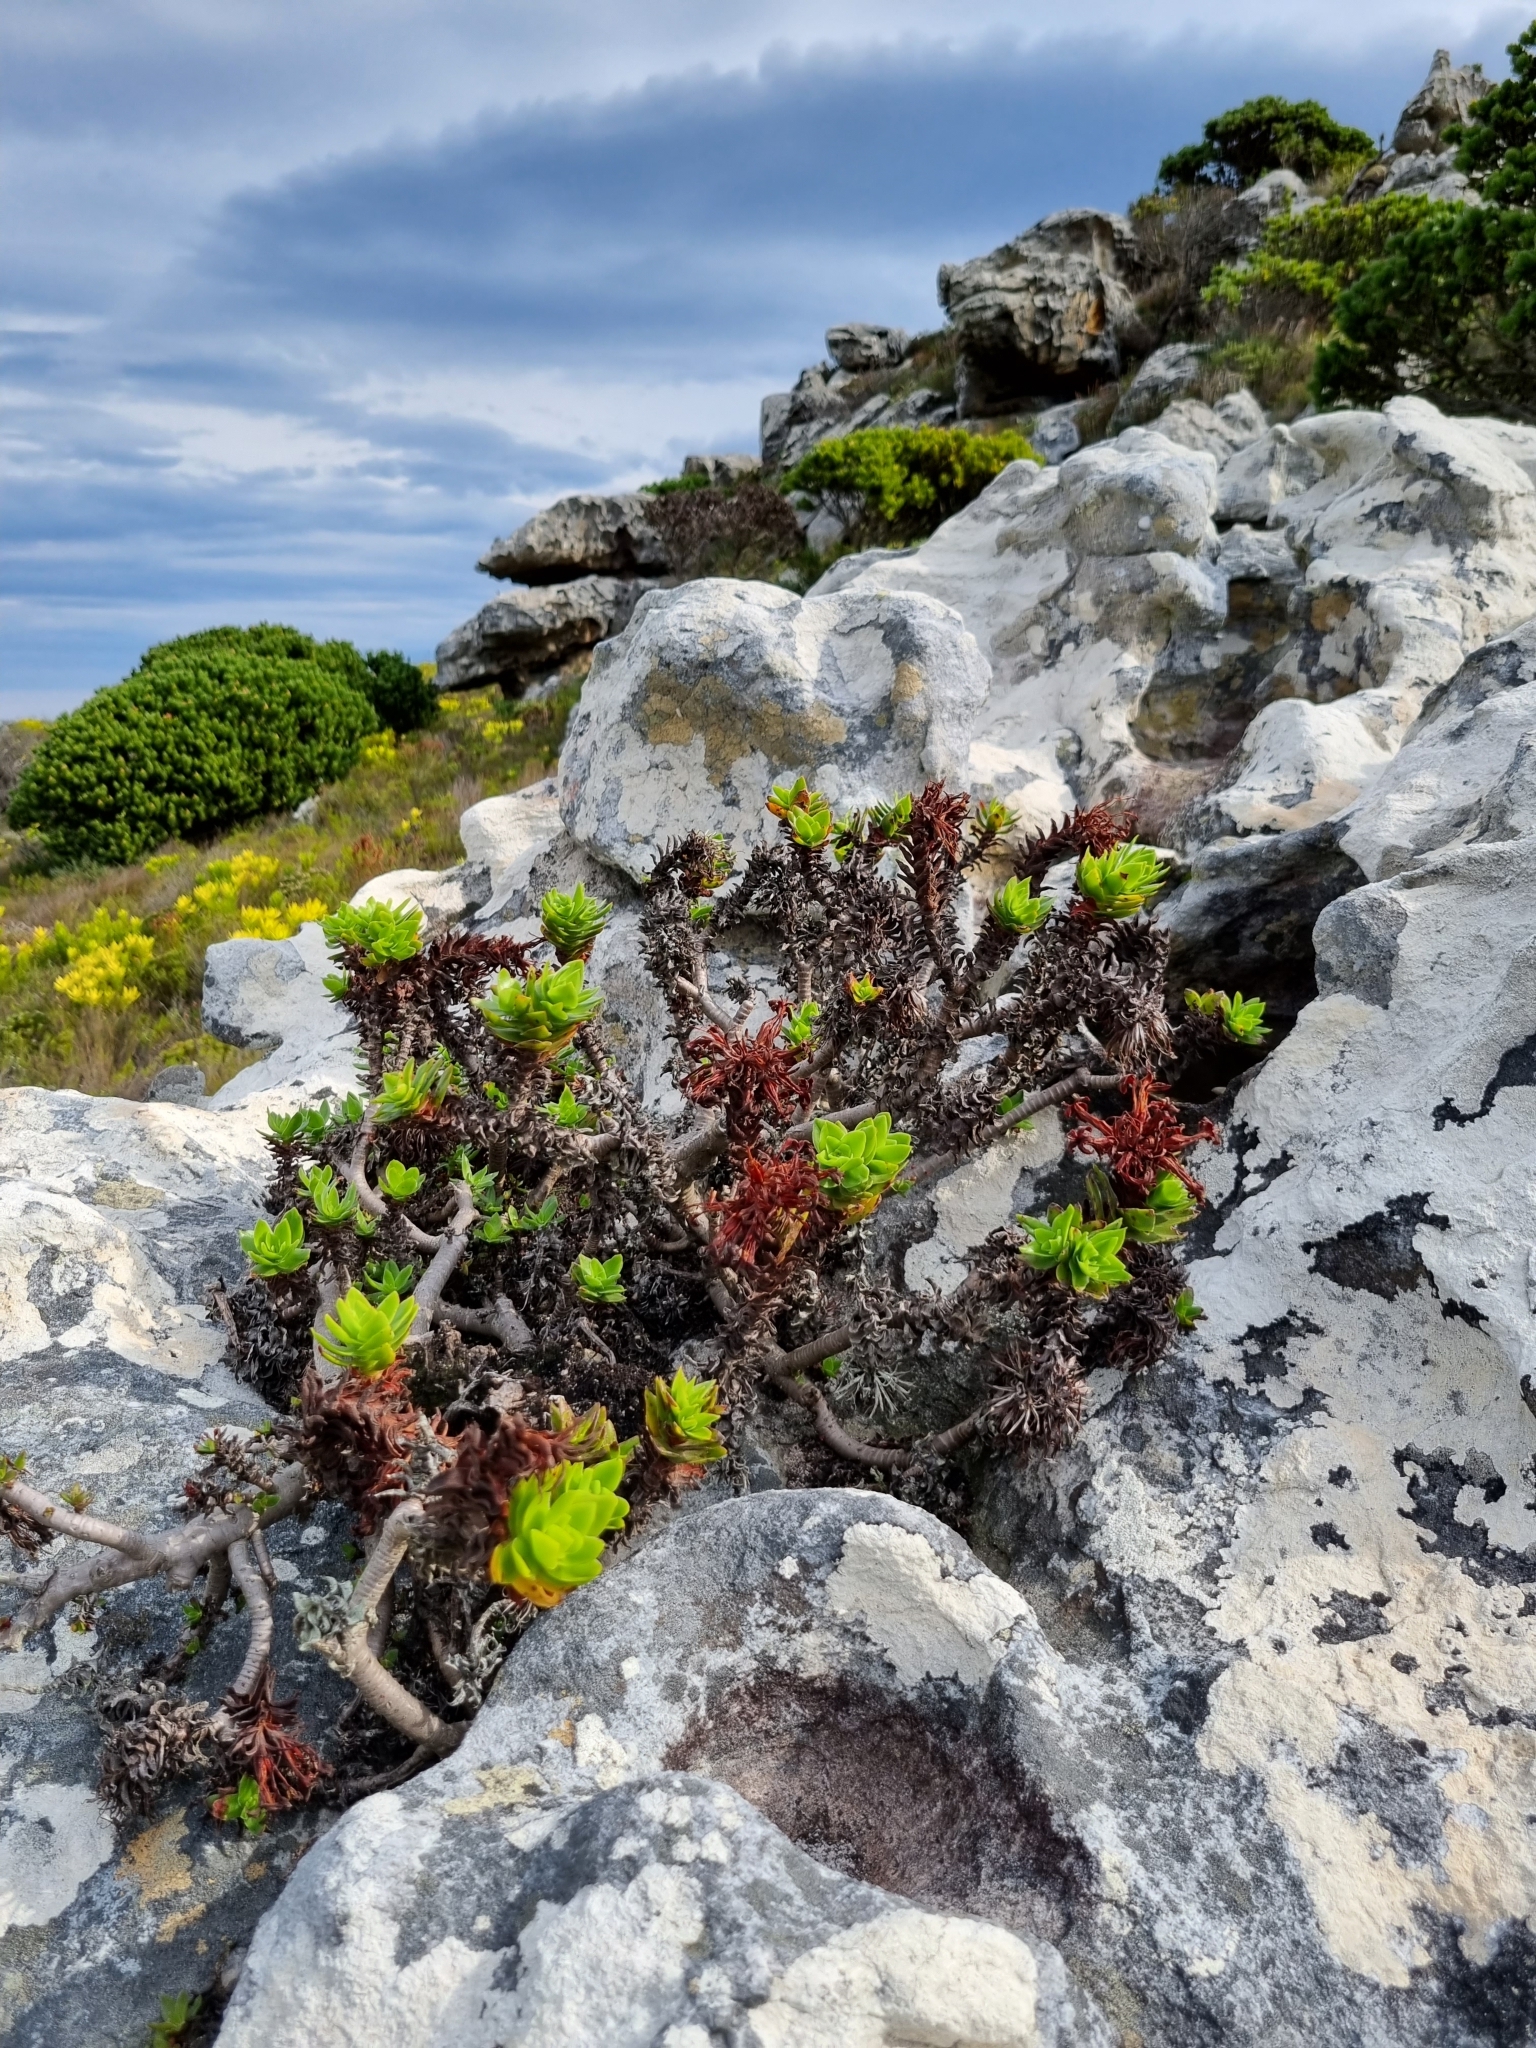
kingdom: Plantae
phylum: Tracheophyta
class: Magnoliopsida
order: Saxifragales
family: Crassulaceae
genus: Crassula
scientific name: Crassula coccinea
